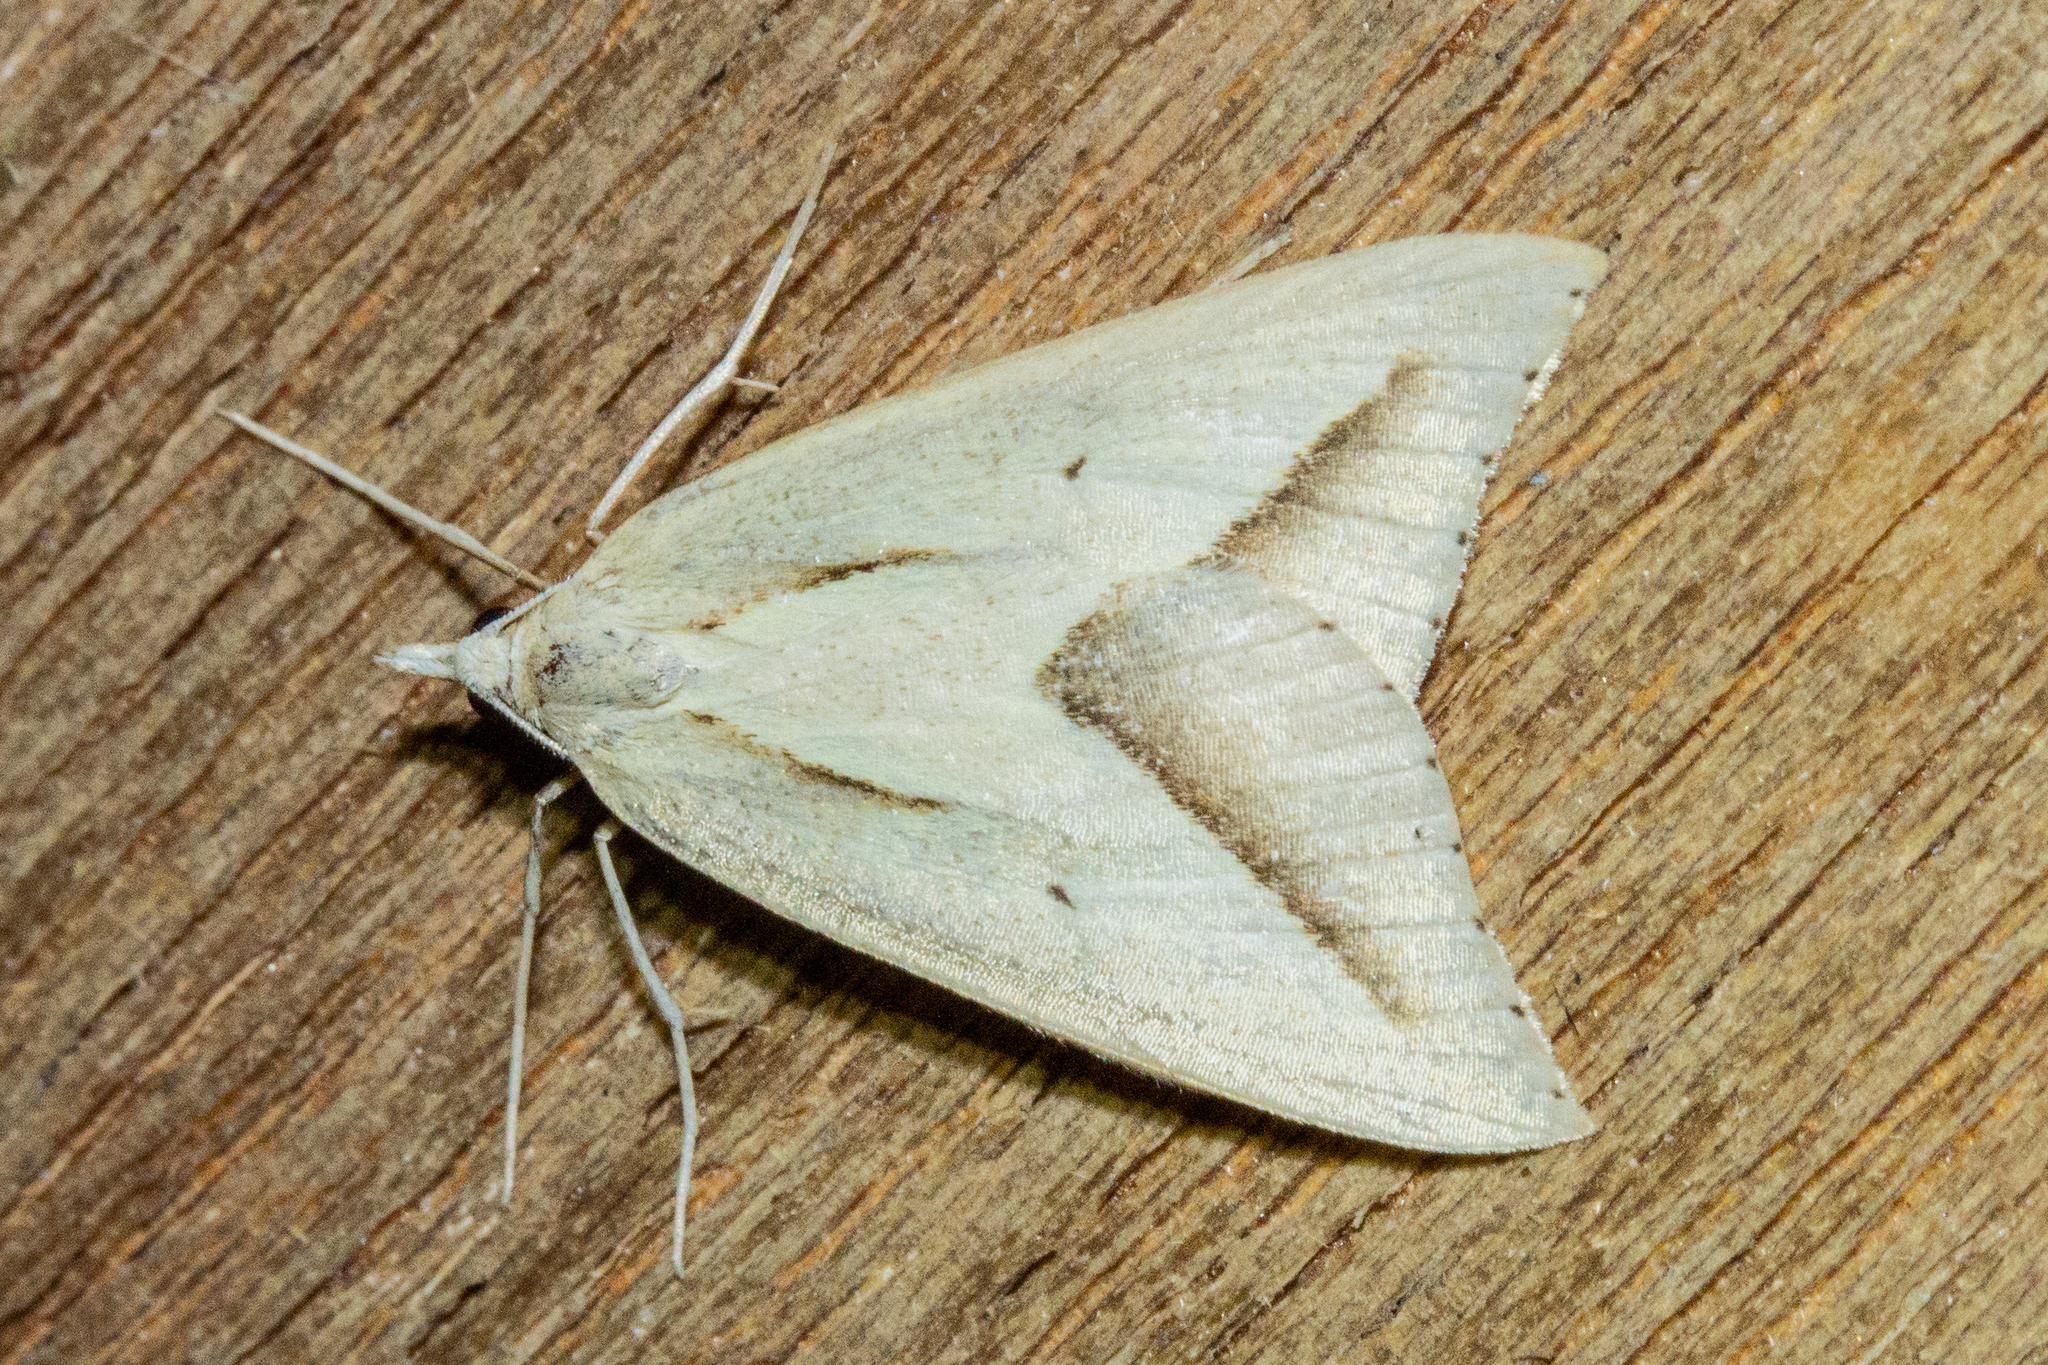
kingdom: Animalia
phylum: Arthropoda
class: Insecta
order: Lepidoptera
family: Geometridae
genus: Samana
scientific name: Samana acutata
